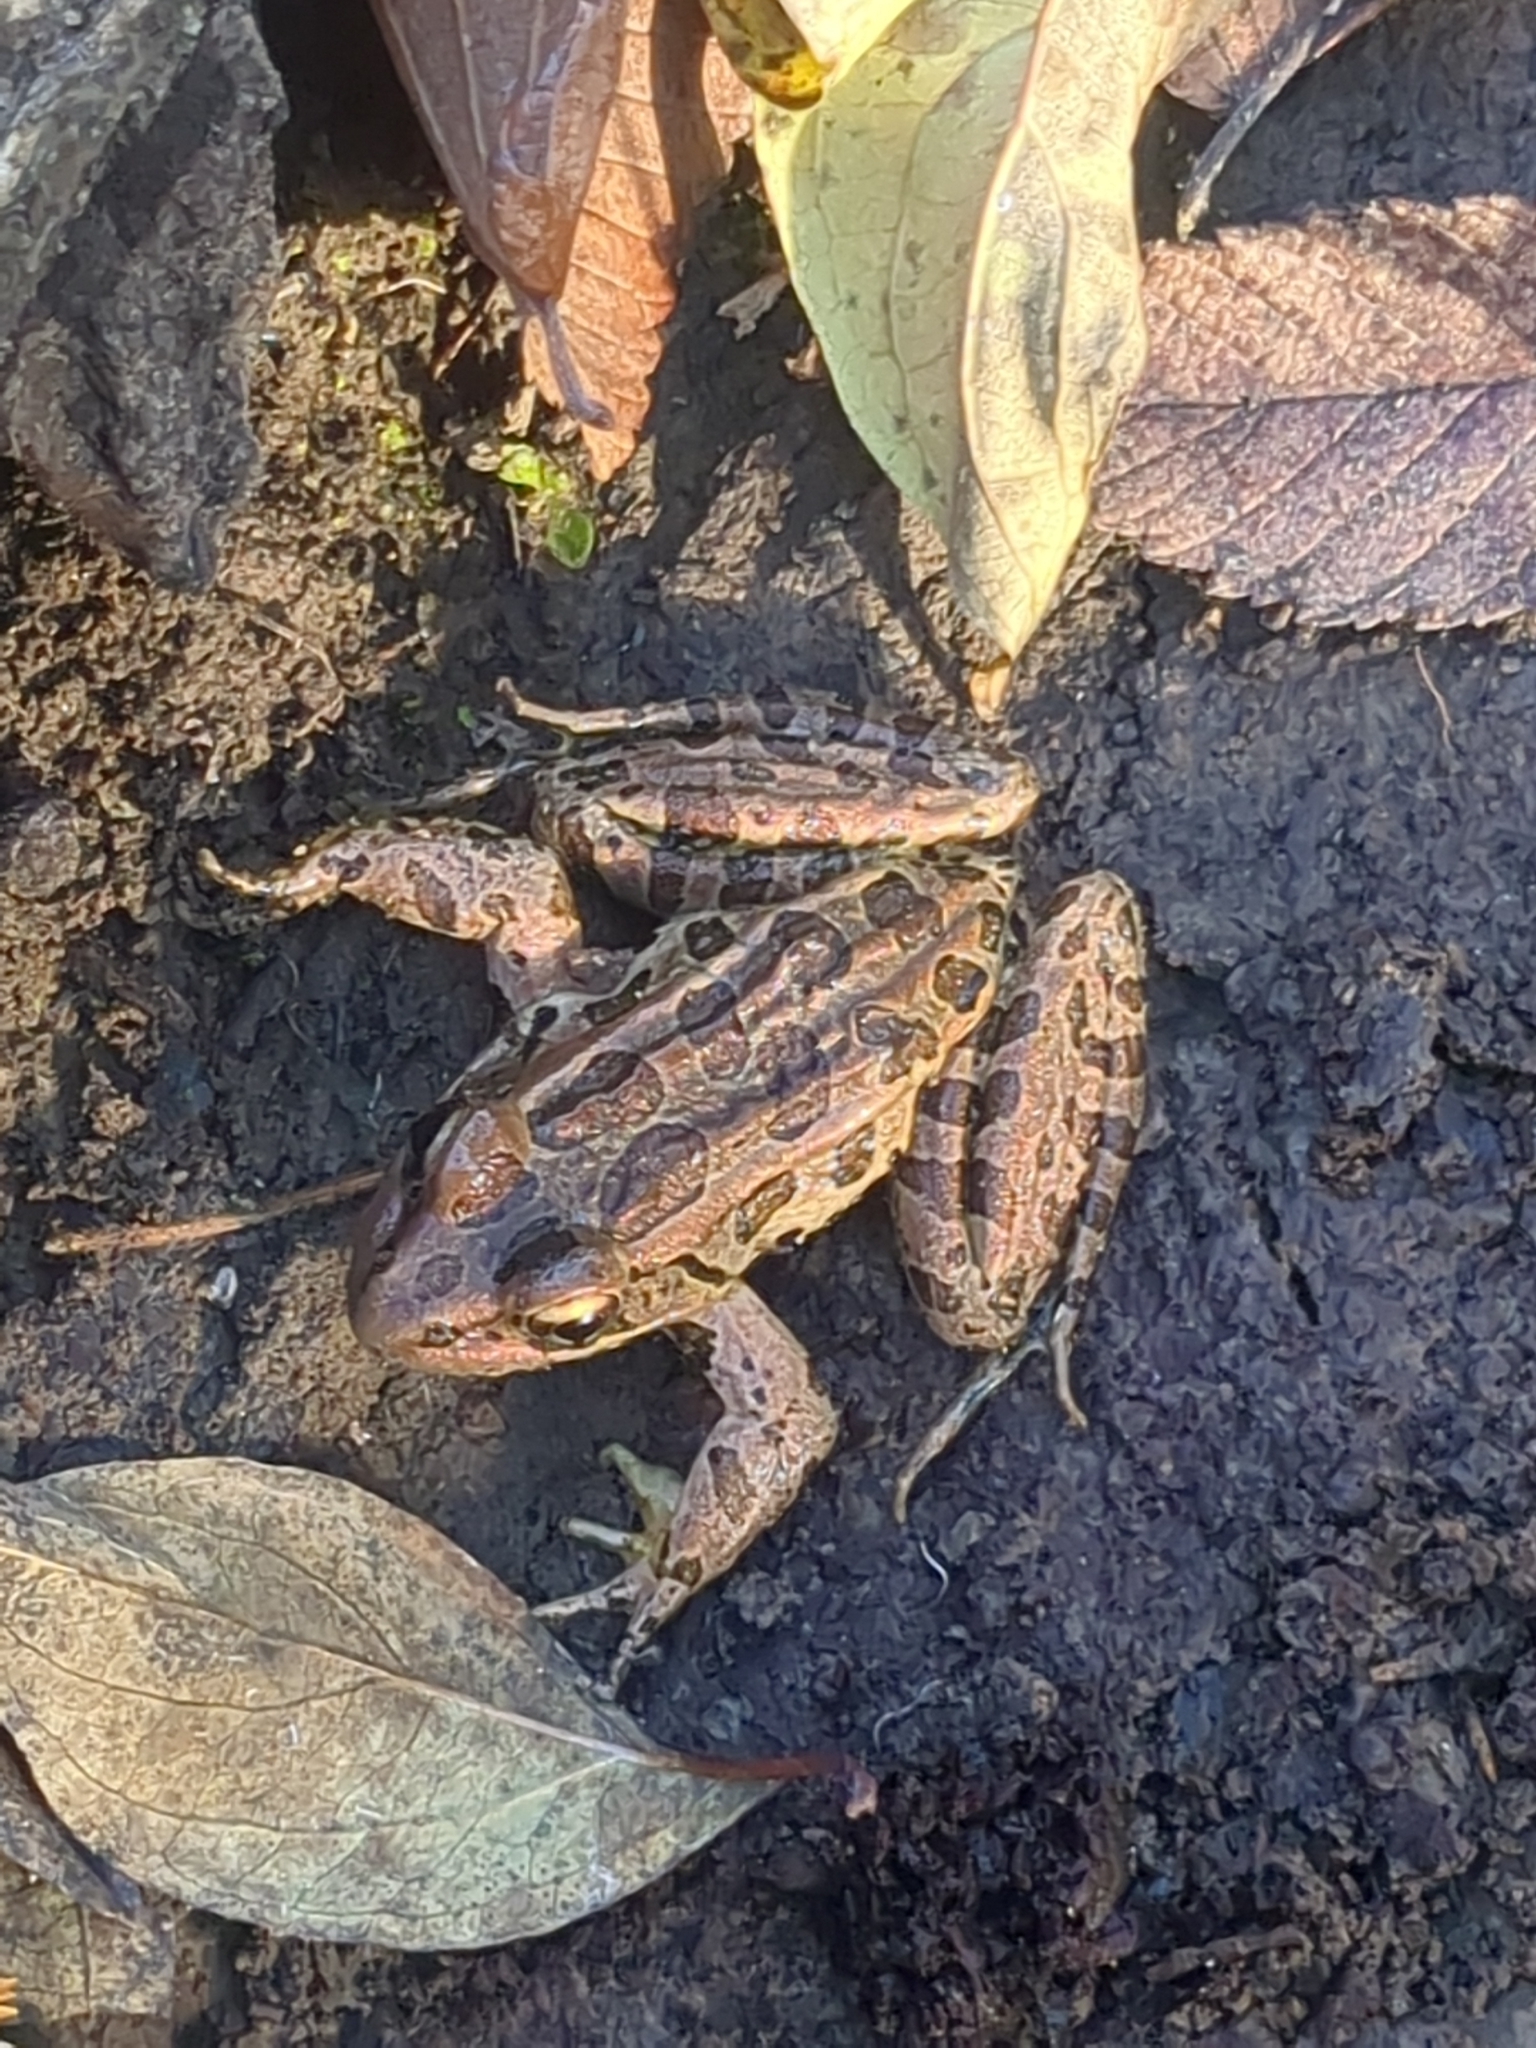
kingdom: Animalia
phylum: Chordata
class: Amphibia
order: Anura
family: Ranidae
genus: Lithobates
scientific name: Lithobates palustris
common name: Pickerel frog
